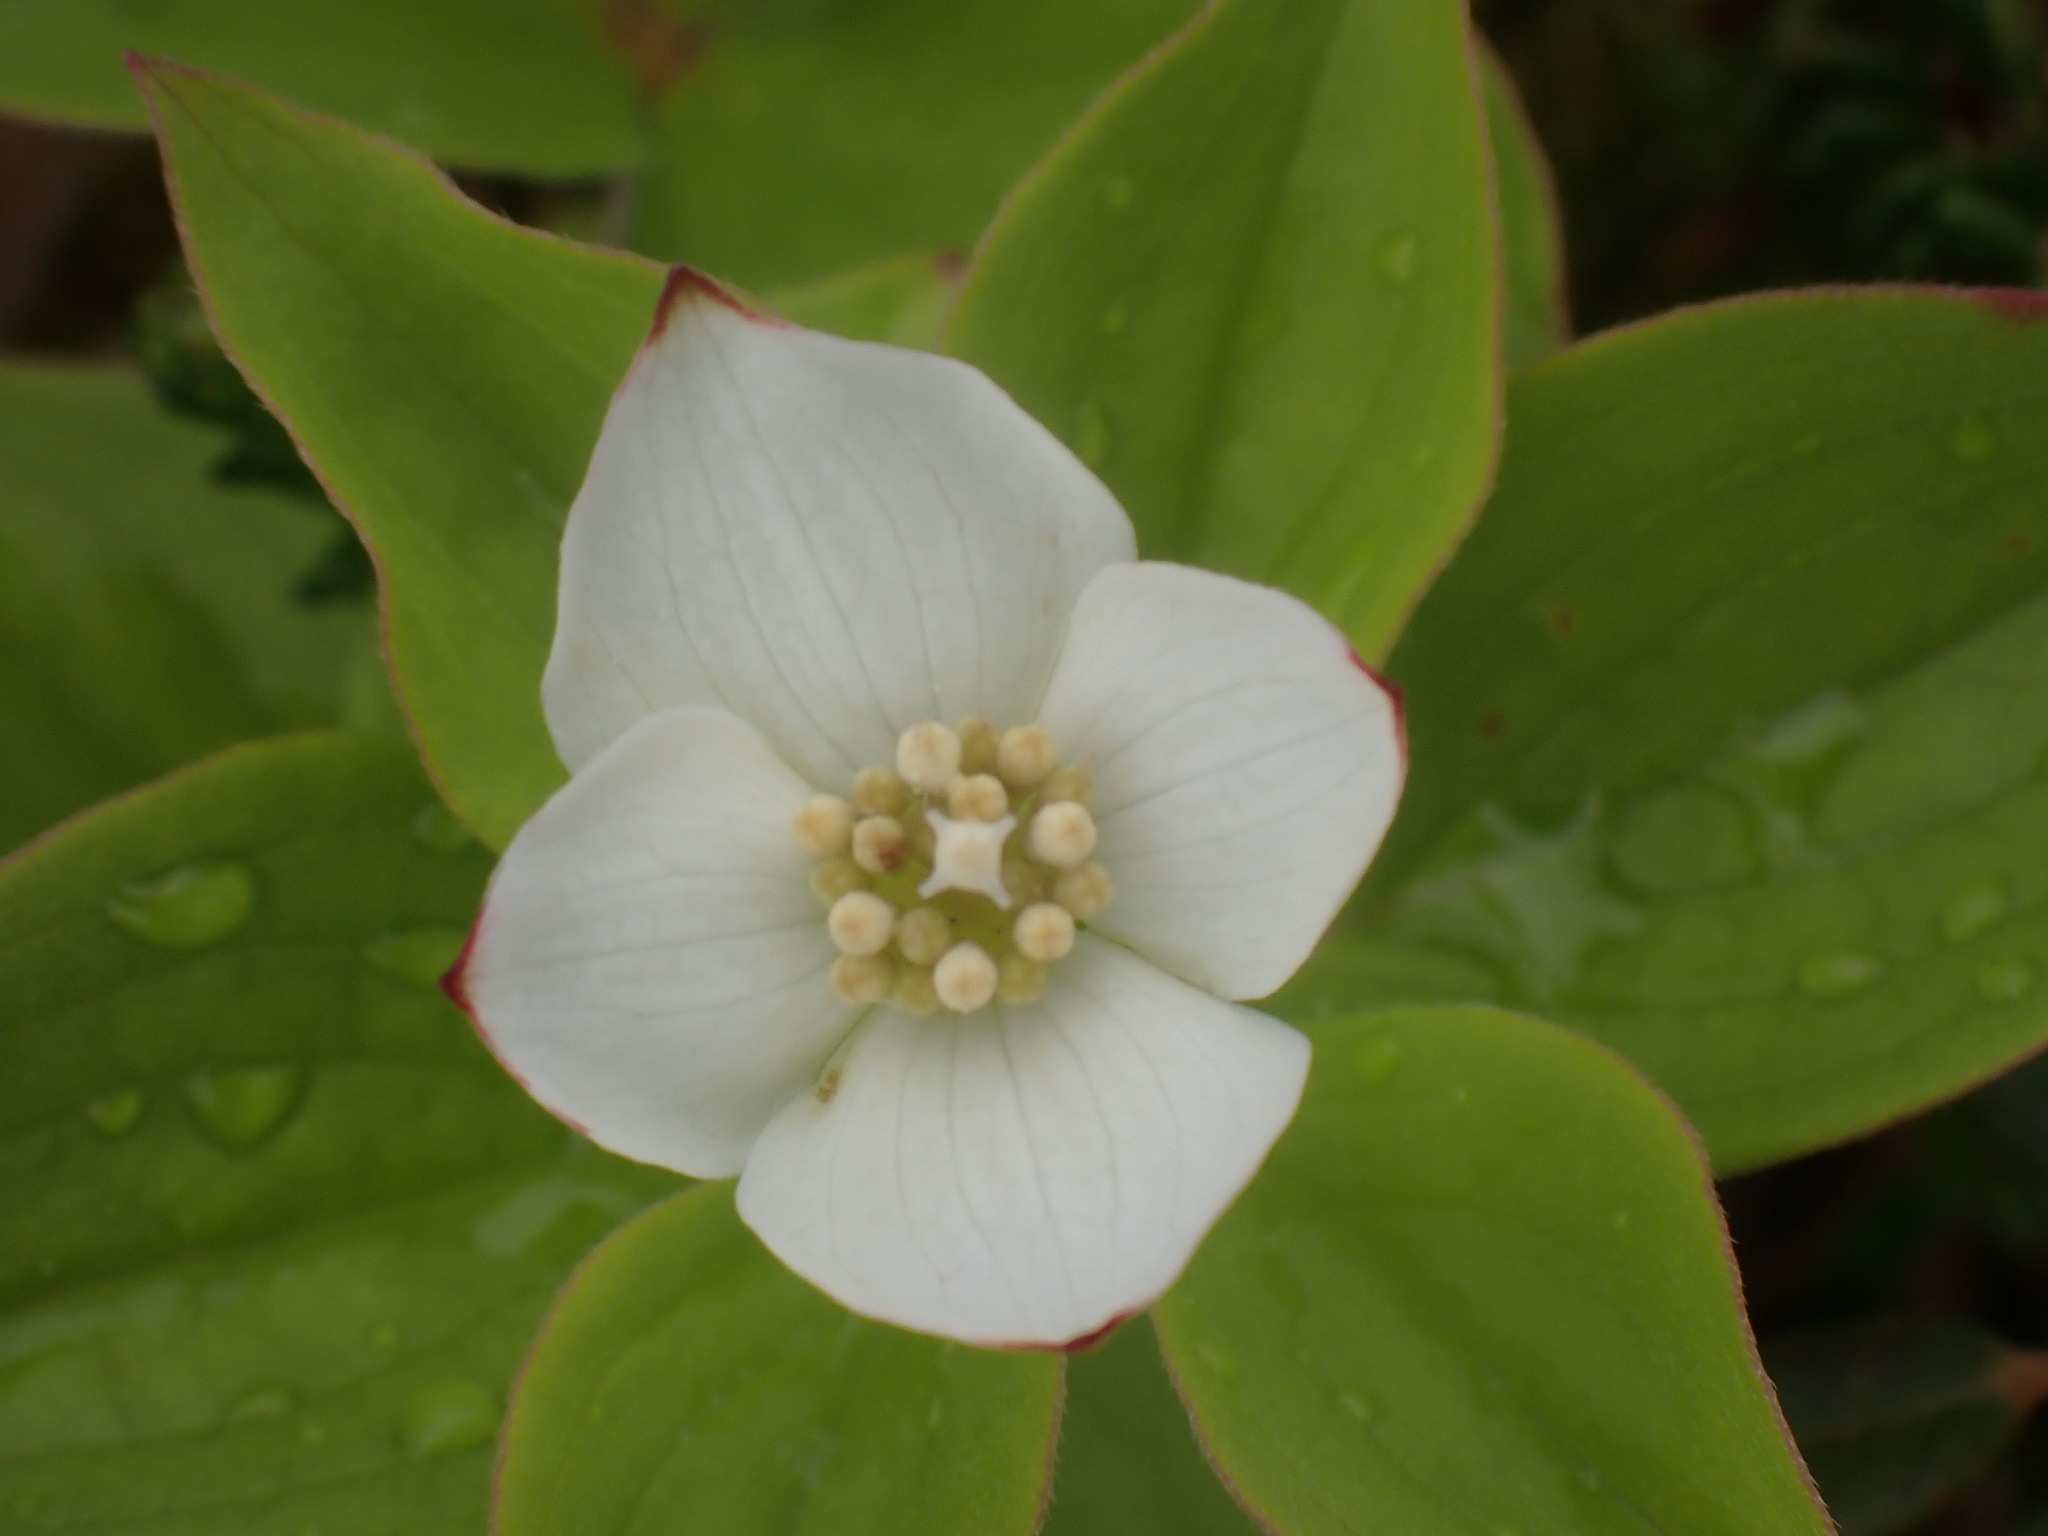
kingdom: Plantae
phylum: Tracheophyta
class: Magnoliopsida
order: Cornales
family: Cornaceae
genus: Cornus
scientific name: Cornus canadensis
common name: Creeping dogwood
